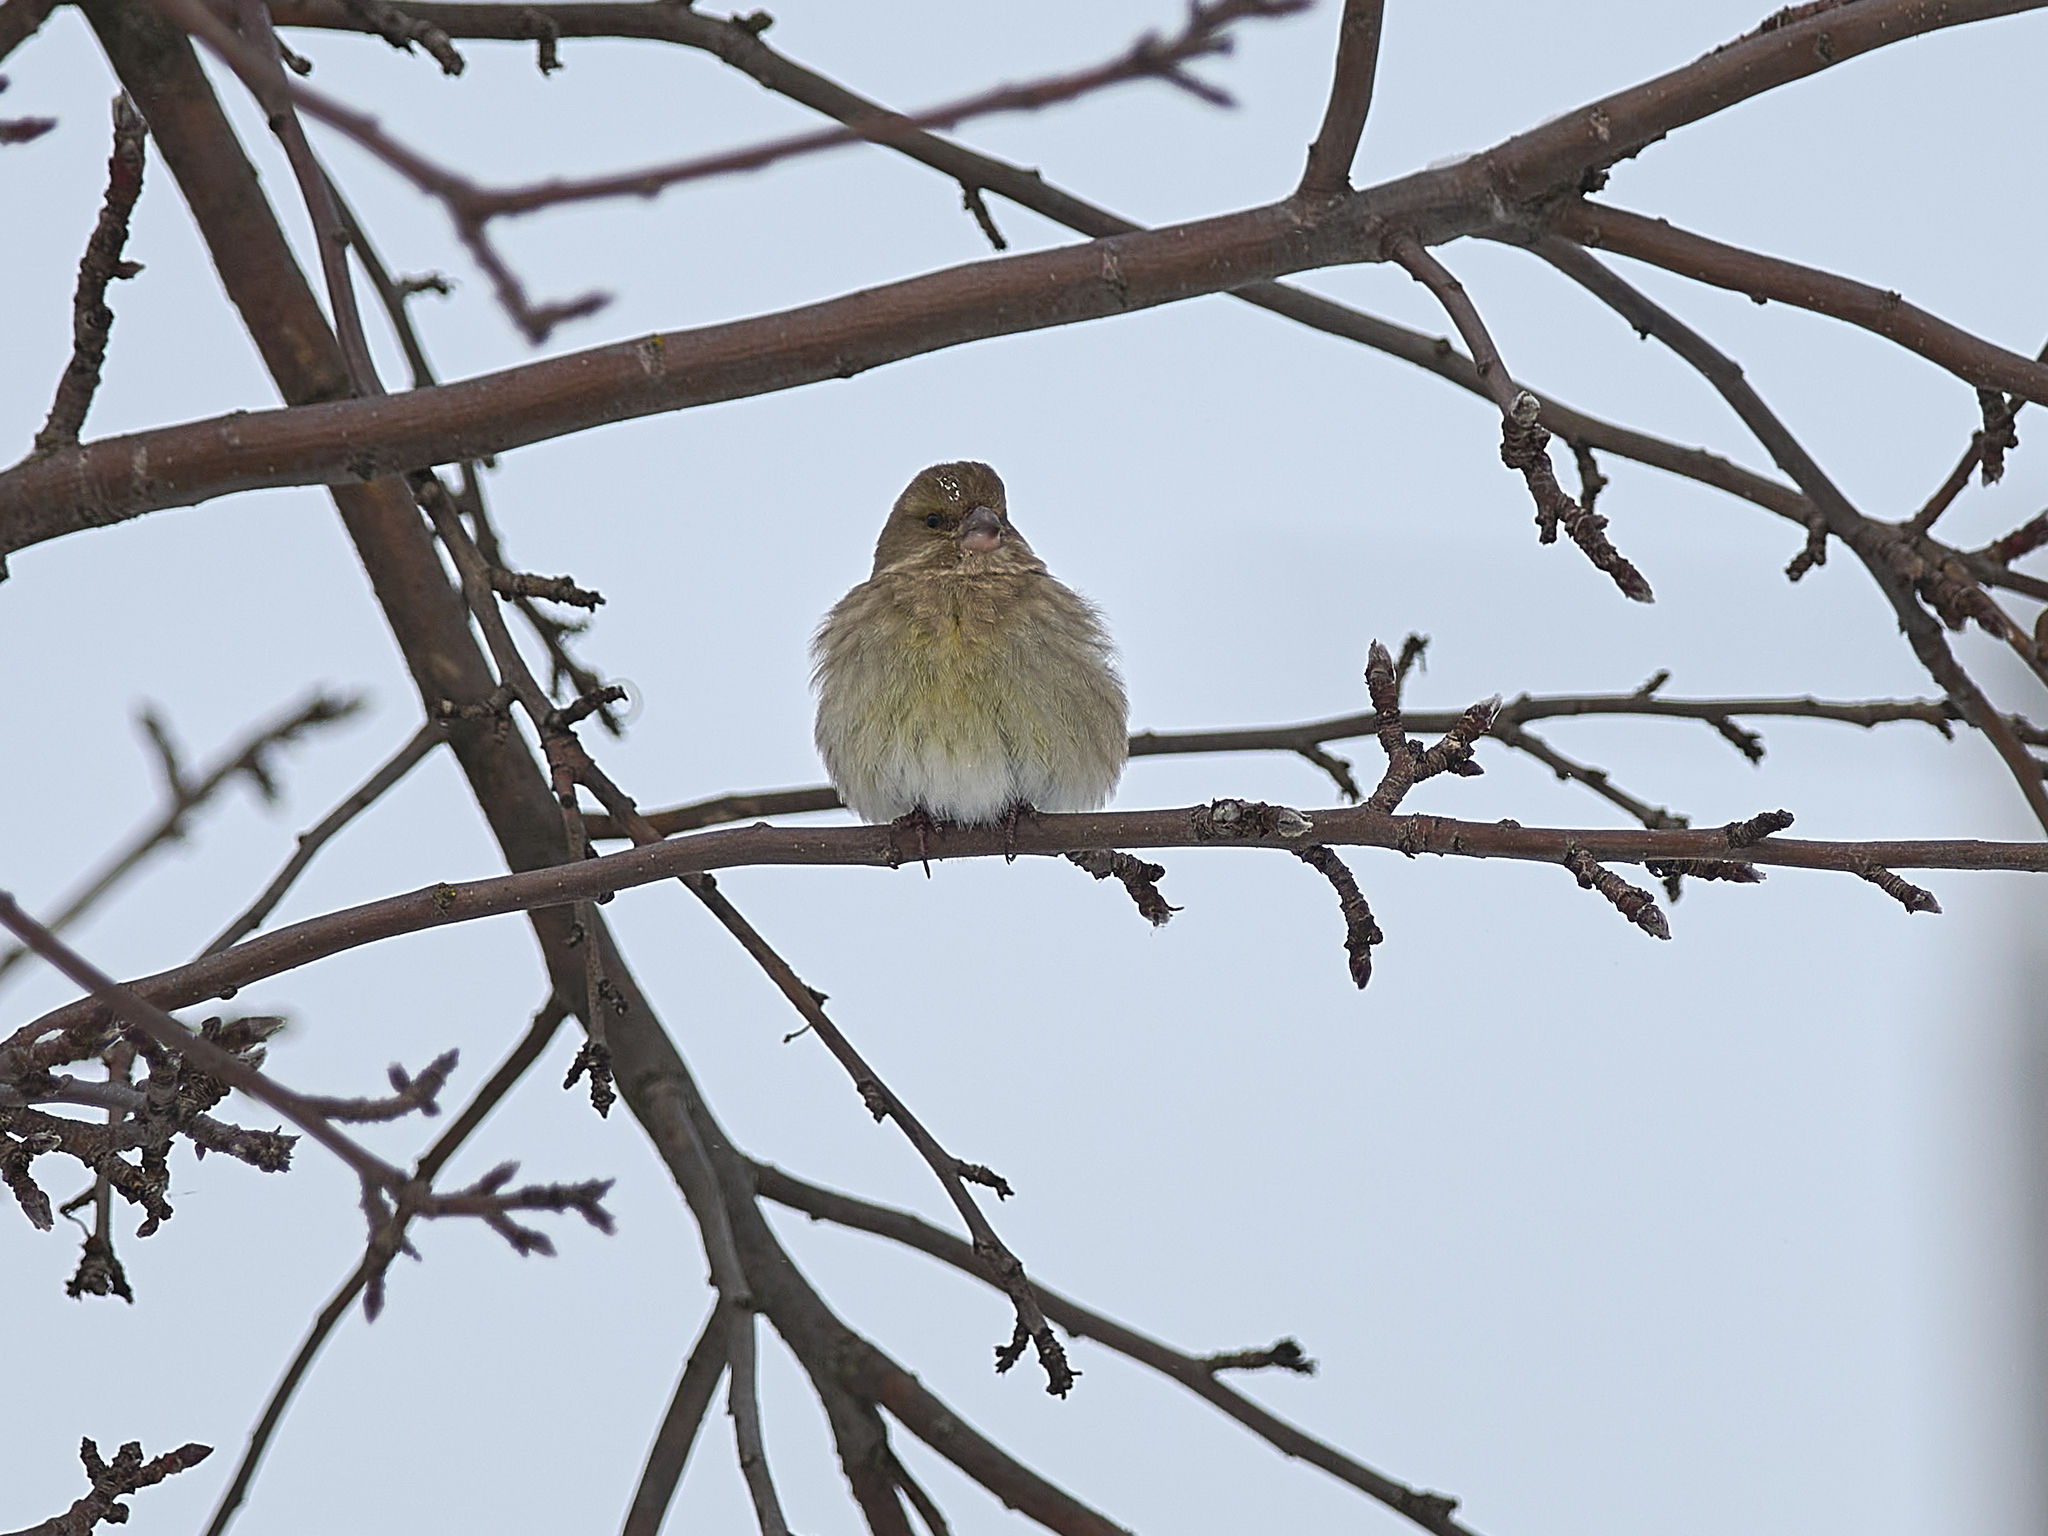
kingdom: Plantae
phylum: Tracheophyta
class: Liliopsida
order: Poales
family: Poaceae
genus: Chloris
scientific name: Chloris chloris
